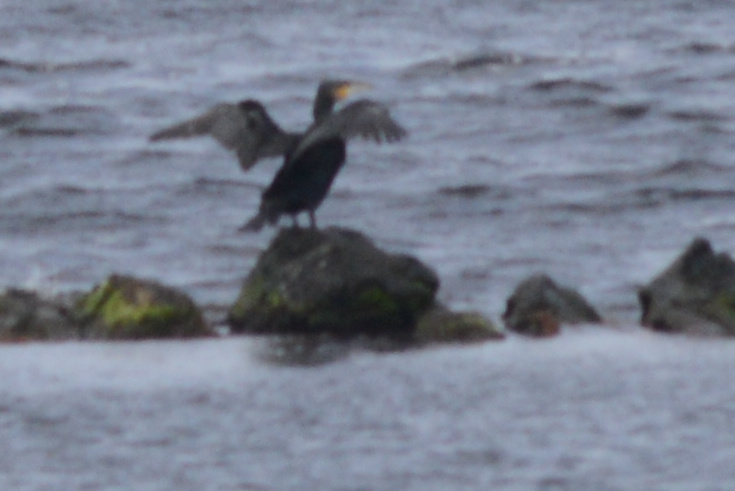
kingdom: Animalia
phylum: Chordata
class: Aves
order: Suliformes
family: Phalacrocoracidae
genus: Phalacrocorax
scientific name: Phalacrocorax carbo
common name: Great cormorant
